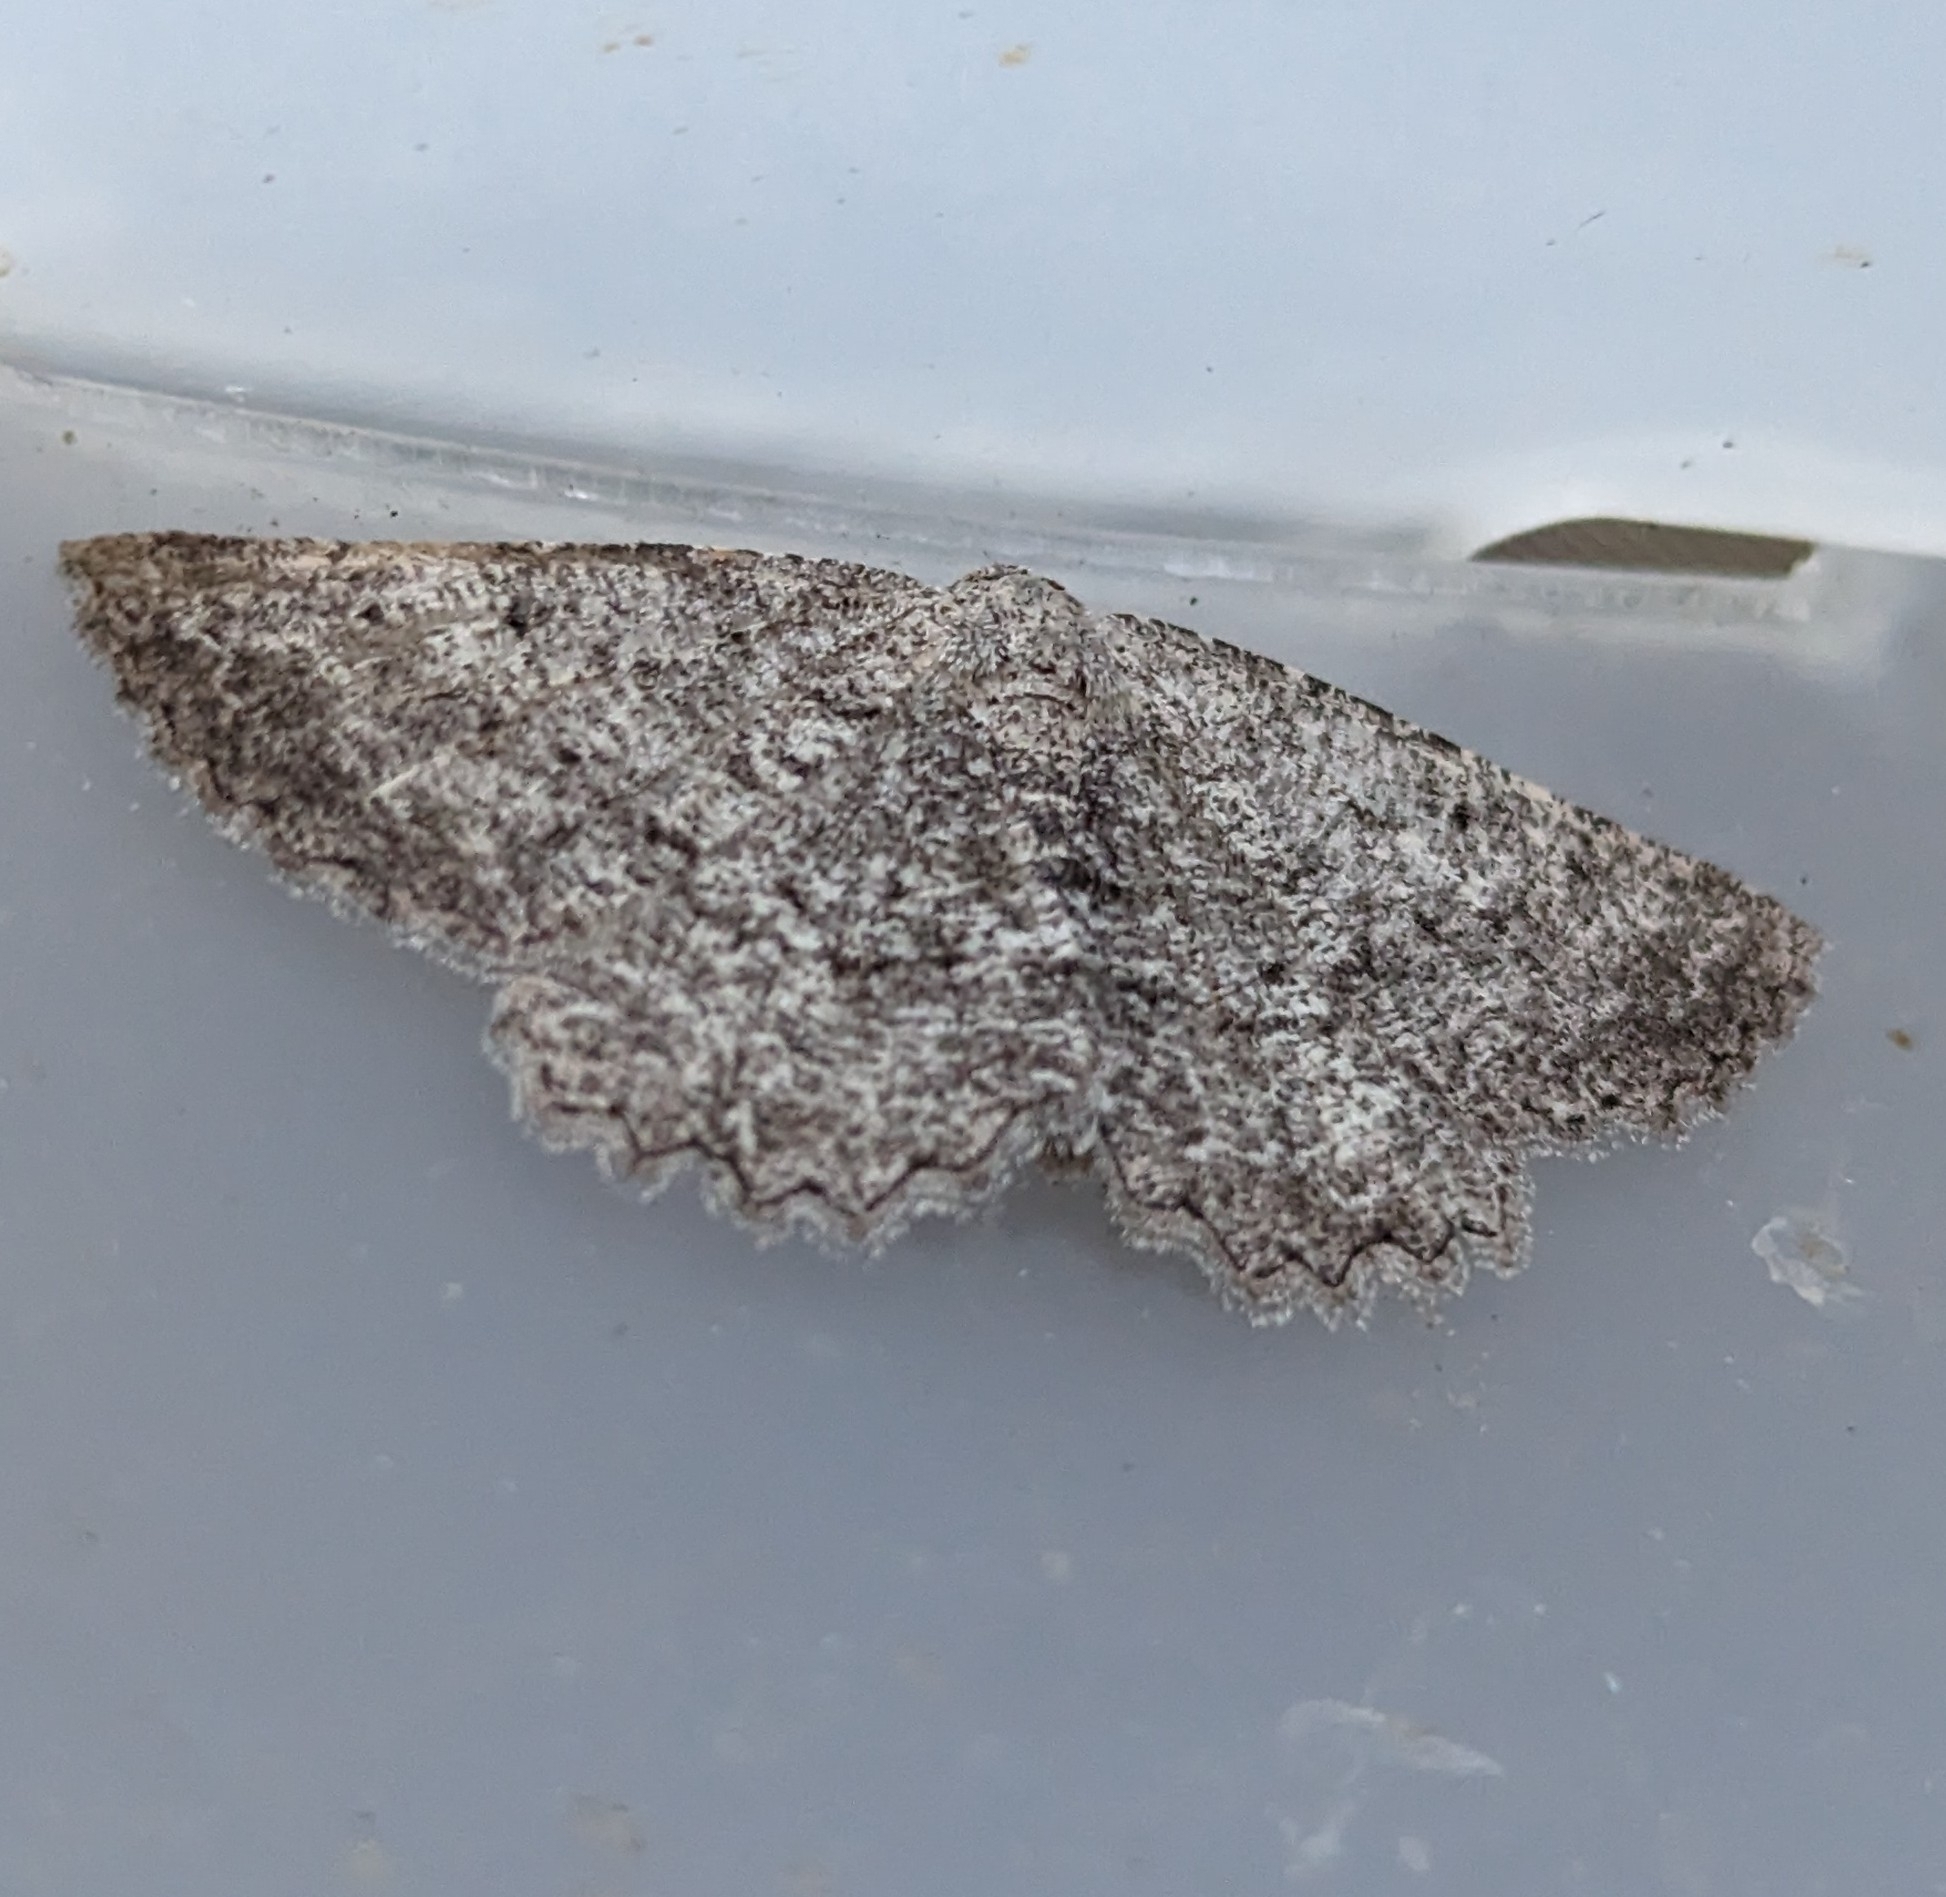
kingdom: Animalia
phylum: Arthropoda
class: Insecta
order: Lepidoptera
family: Geometridae
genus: Hesperumia
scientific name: Hesperumia latipennis
